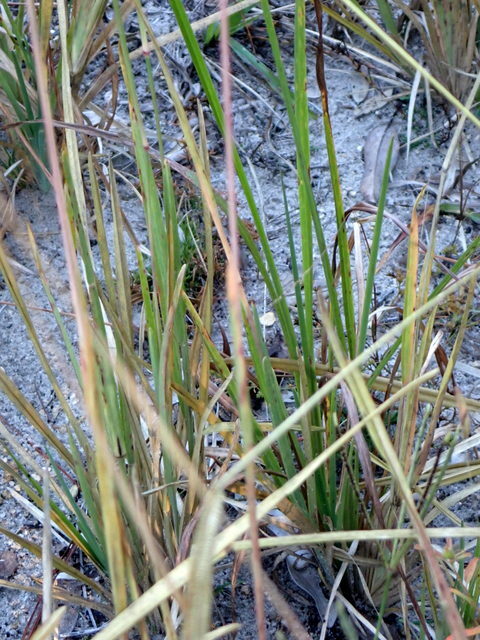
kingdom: Plantae
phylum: Tracheophyta
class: Liliopsida
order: Poales
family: Poaceae
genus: Eustachys
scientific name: Eustachys petraea
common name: Pinewoods fingergrass
